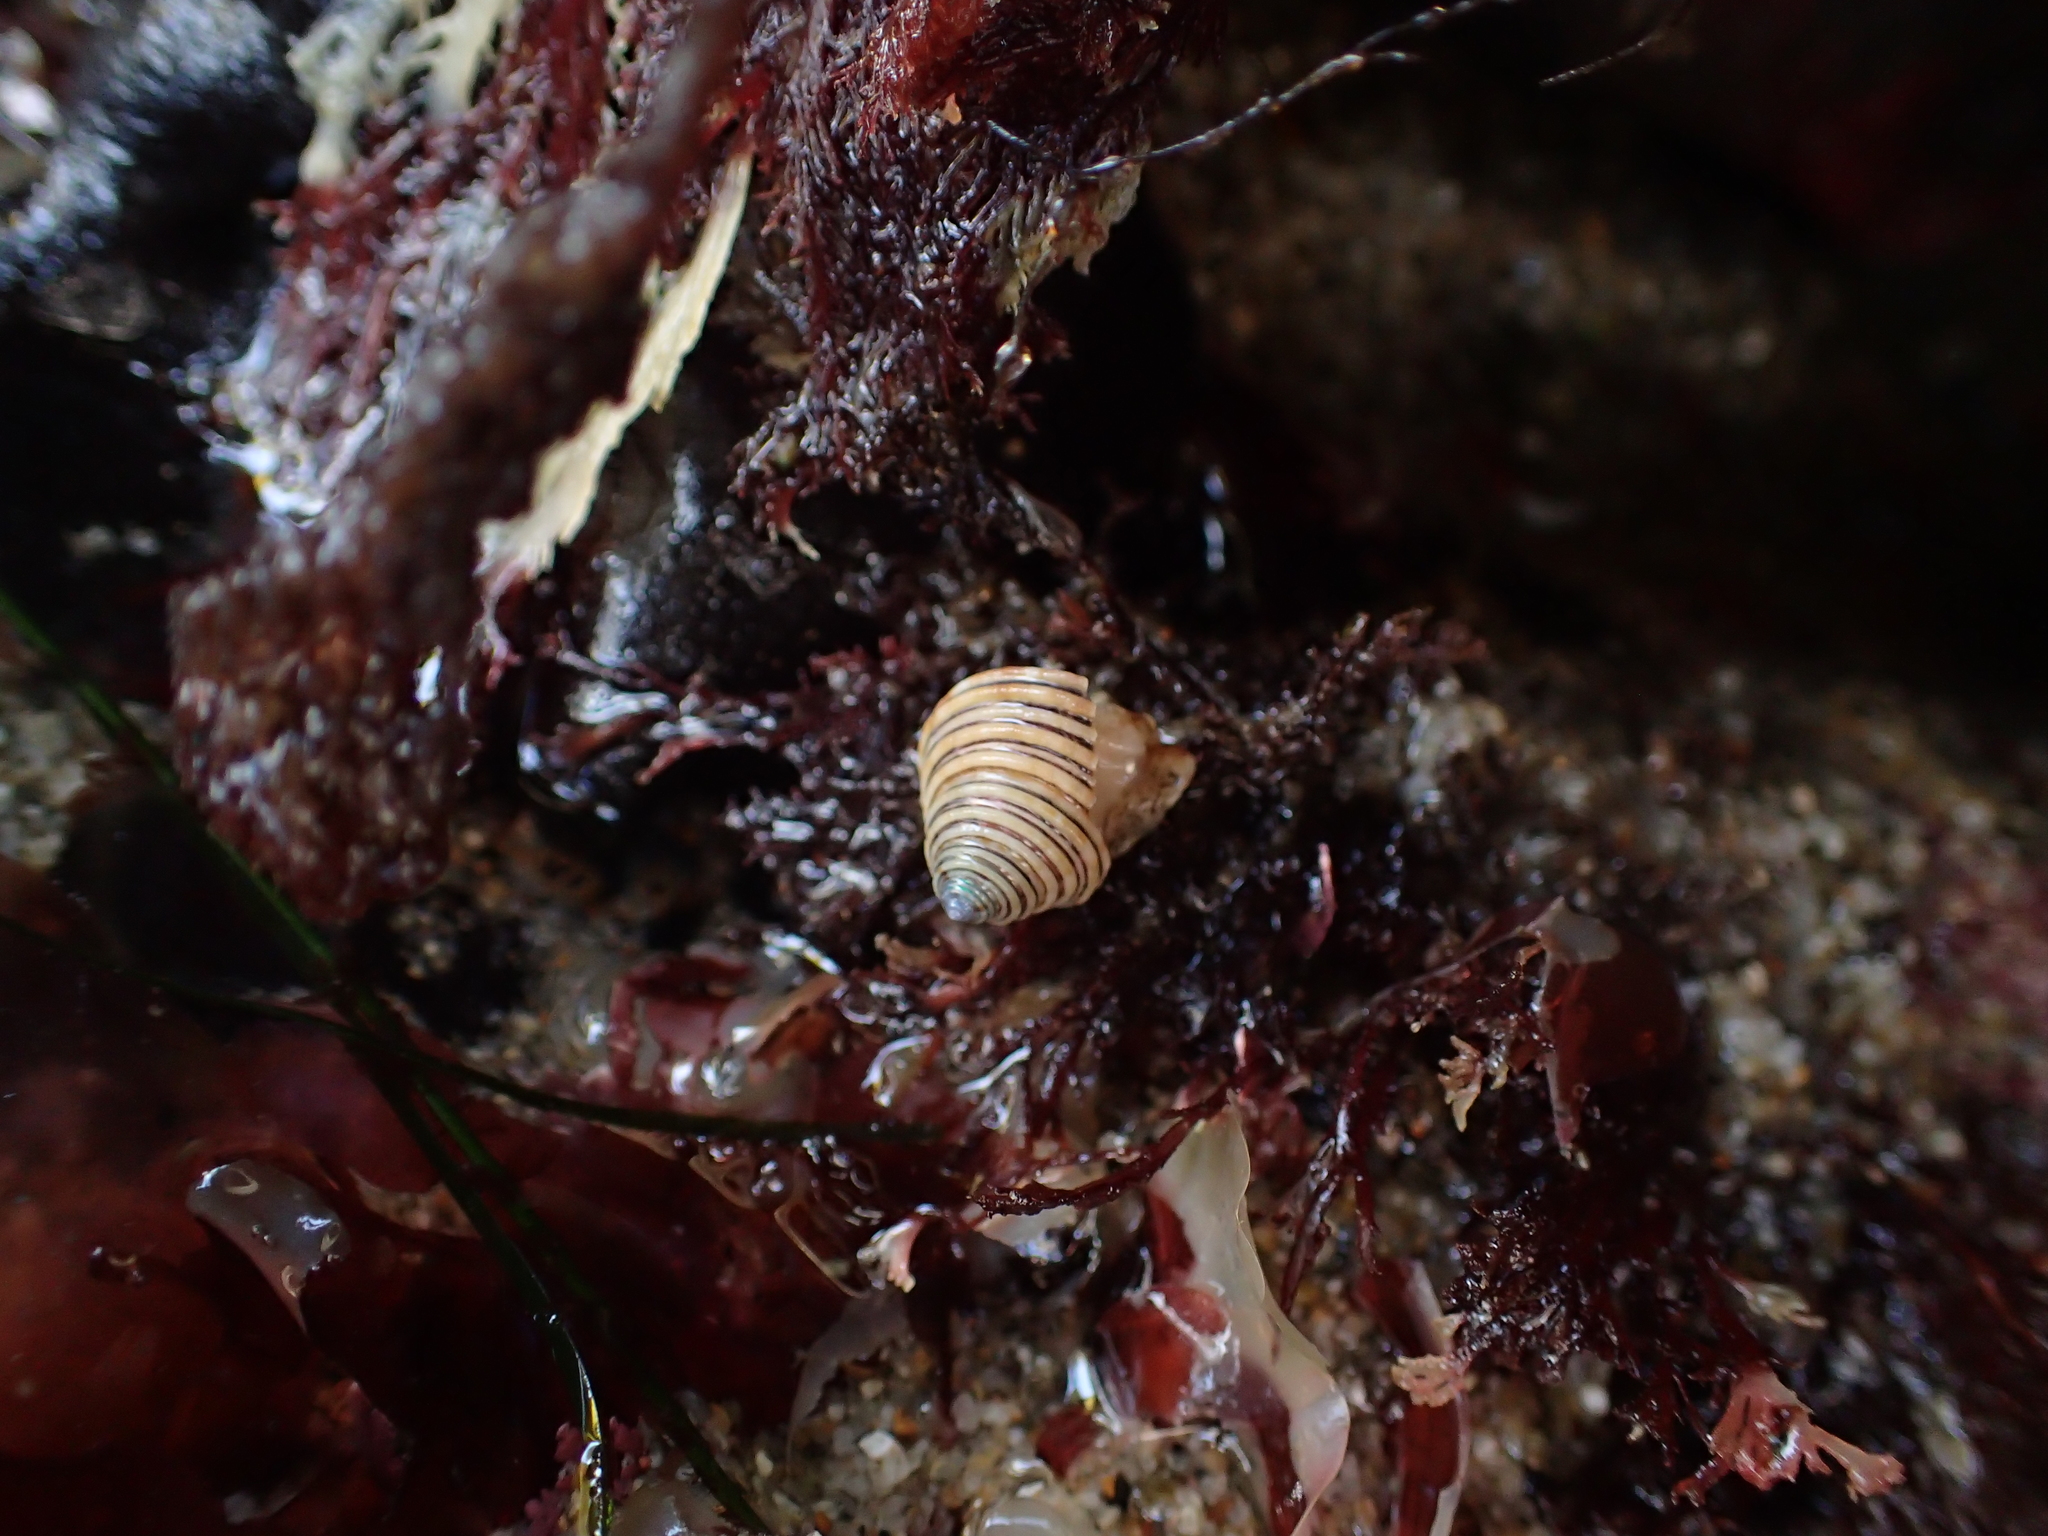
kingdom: Animalia
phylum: Mollusca
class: Gastropoda
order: Trochida
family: Calliostomatidae
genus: Calliostoma
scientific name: Calliostoma canaliculatum
